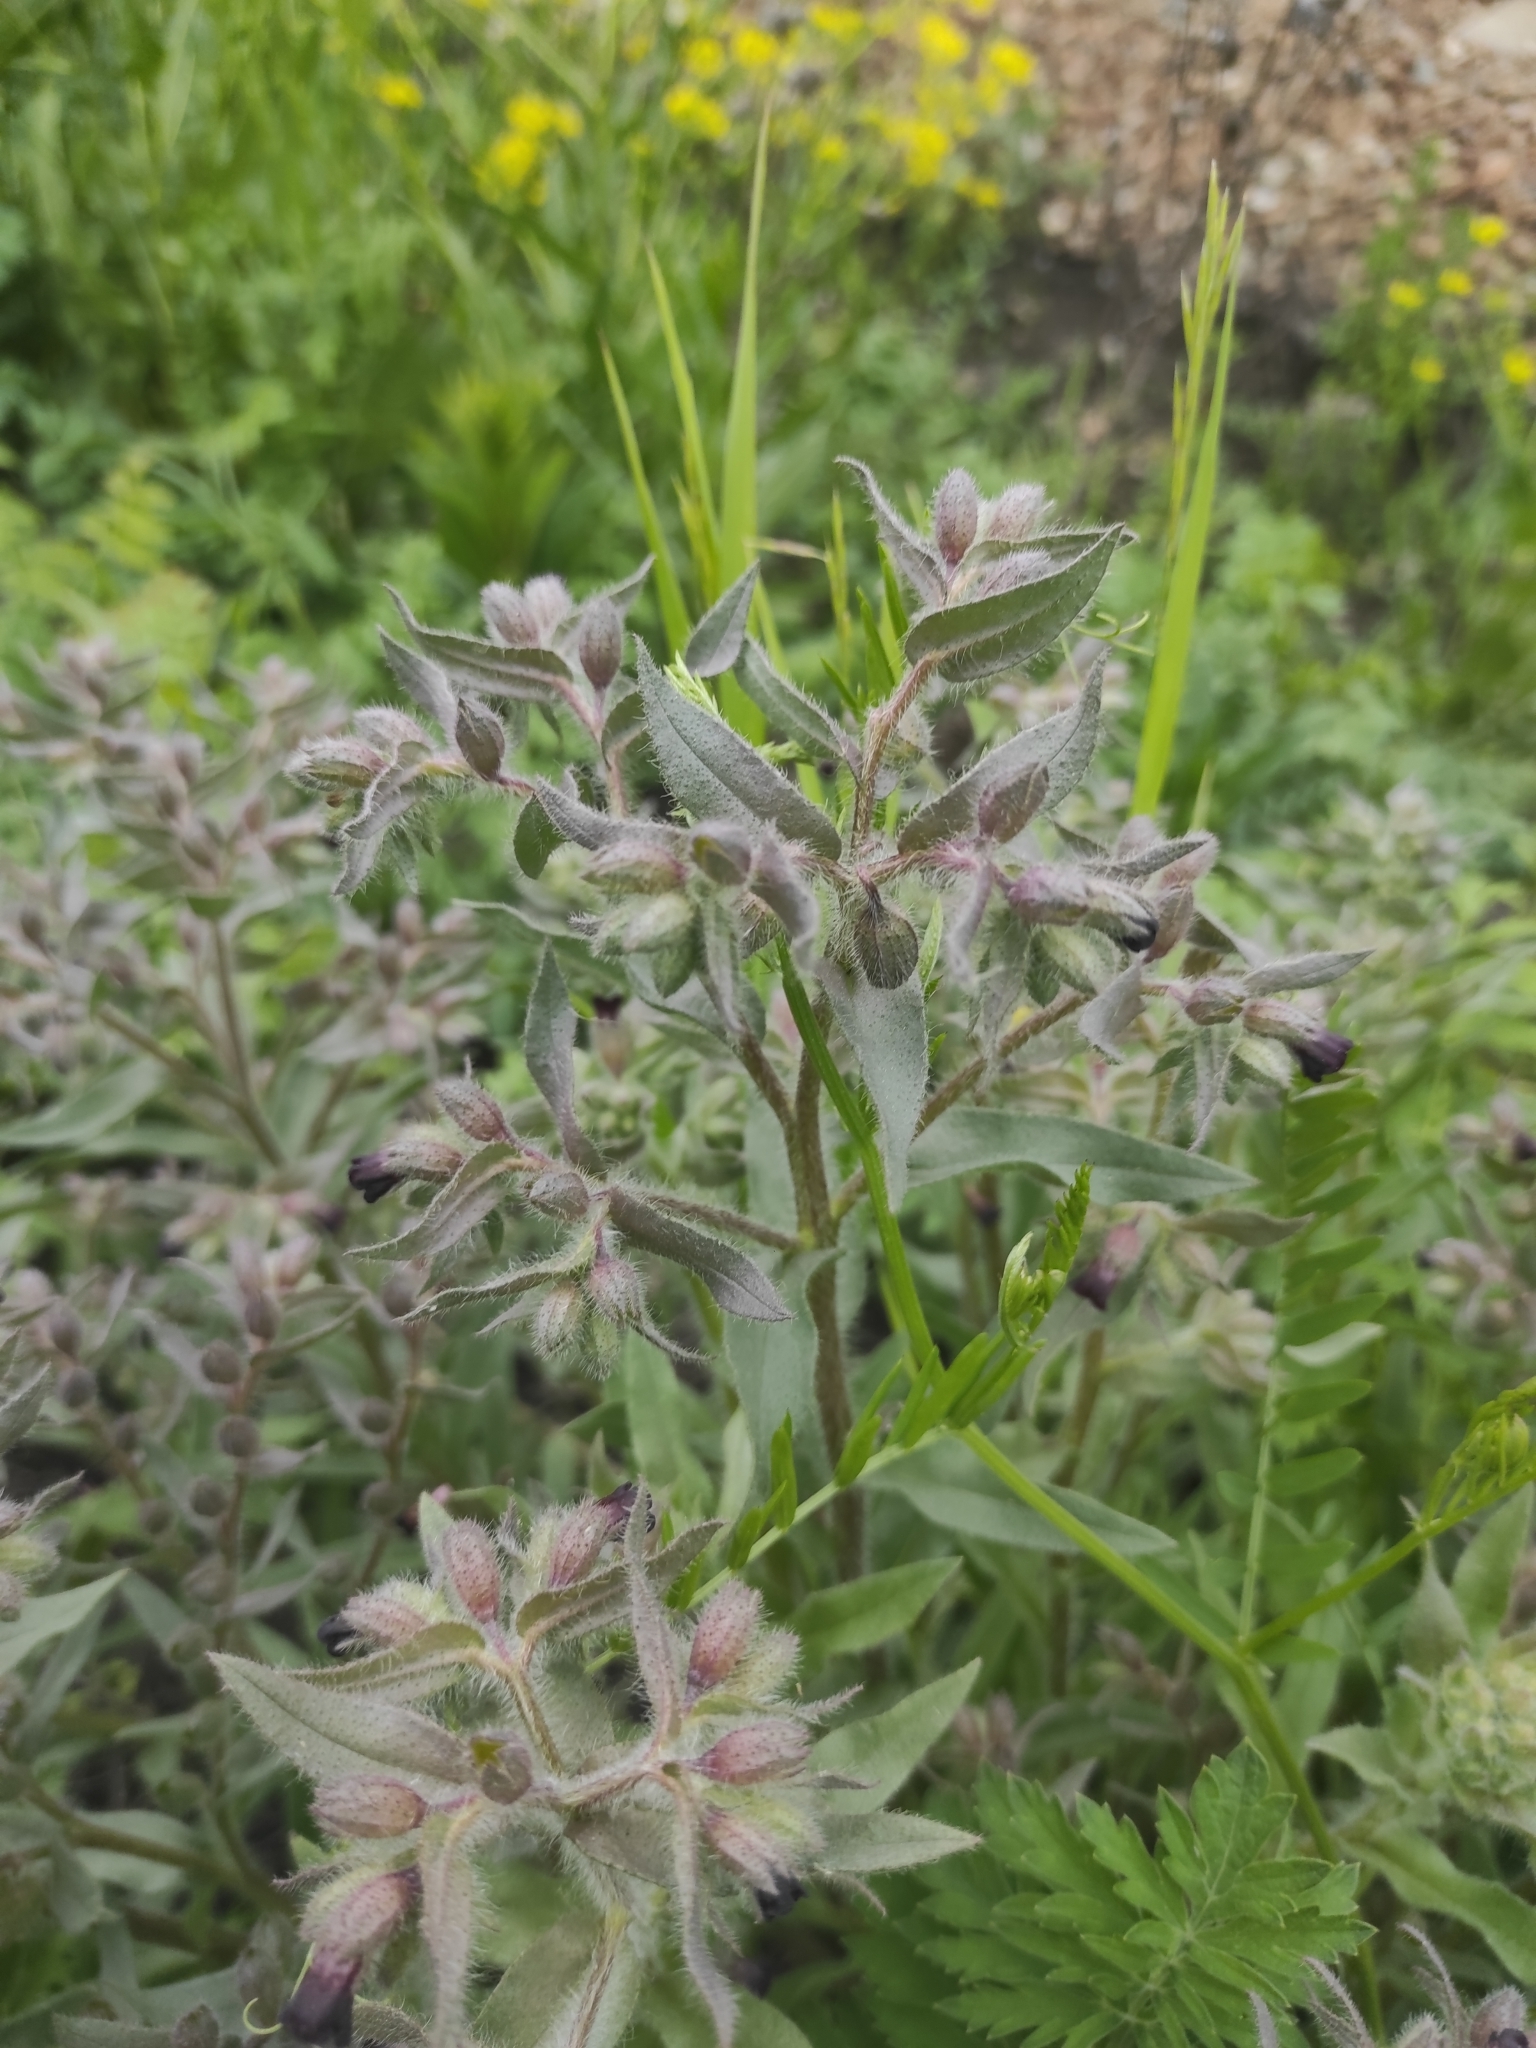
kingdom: Plantae
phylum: Tracheophyta
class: Magnoliopsida
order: Boraginales
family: Boraginaceae
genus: Nonea
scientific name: Nonea pulla
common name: Brown nonea
